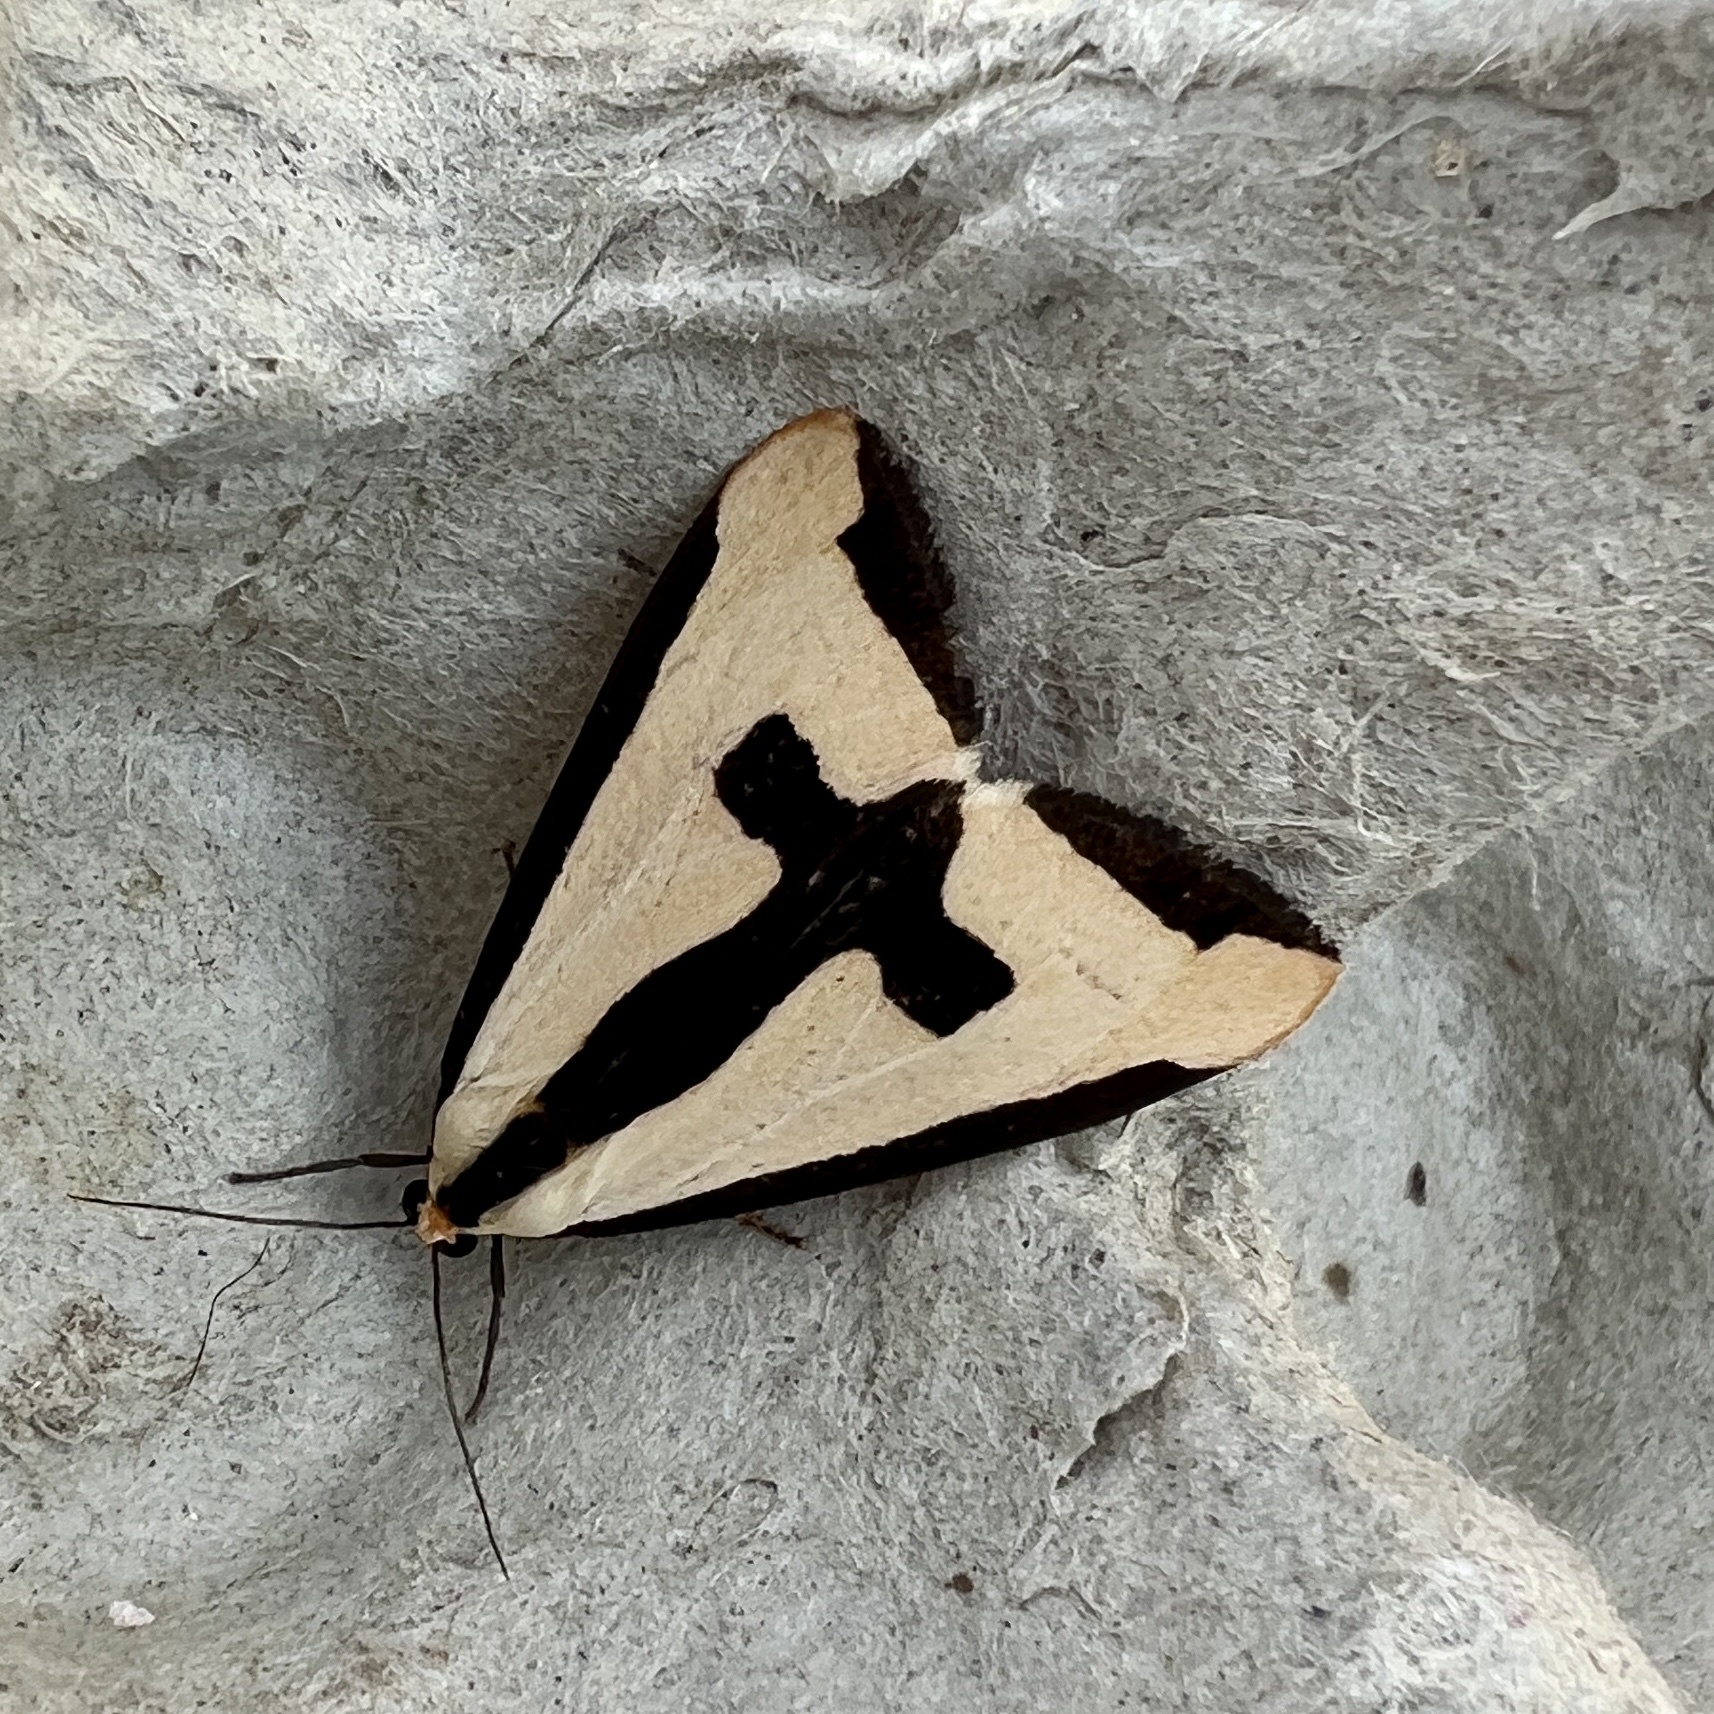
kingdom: Animalia
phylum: Arthropoda
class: Insecta
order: Lepidoptera
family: Erebidae
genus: Haploa
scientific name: Haploa clymene
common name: Clymene moth
